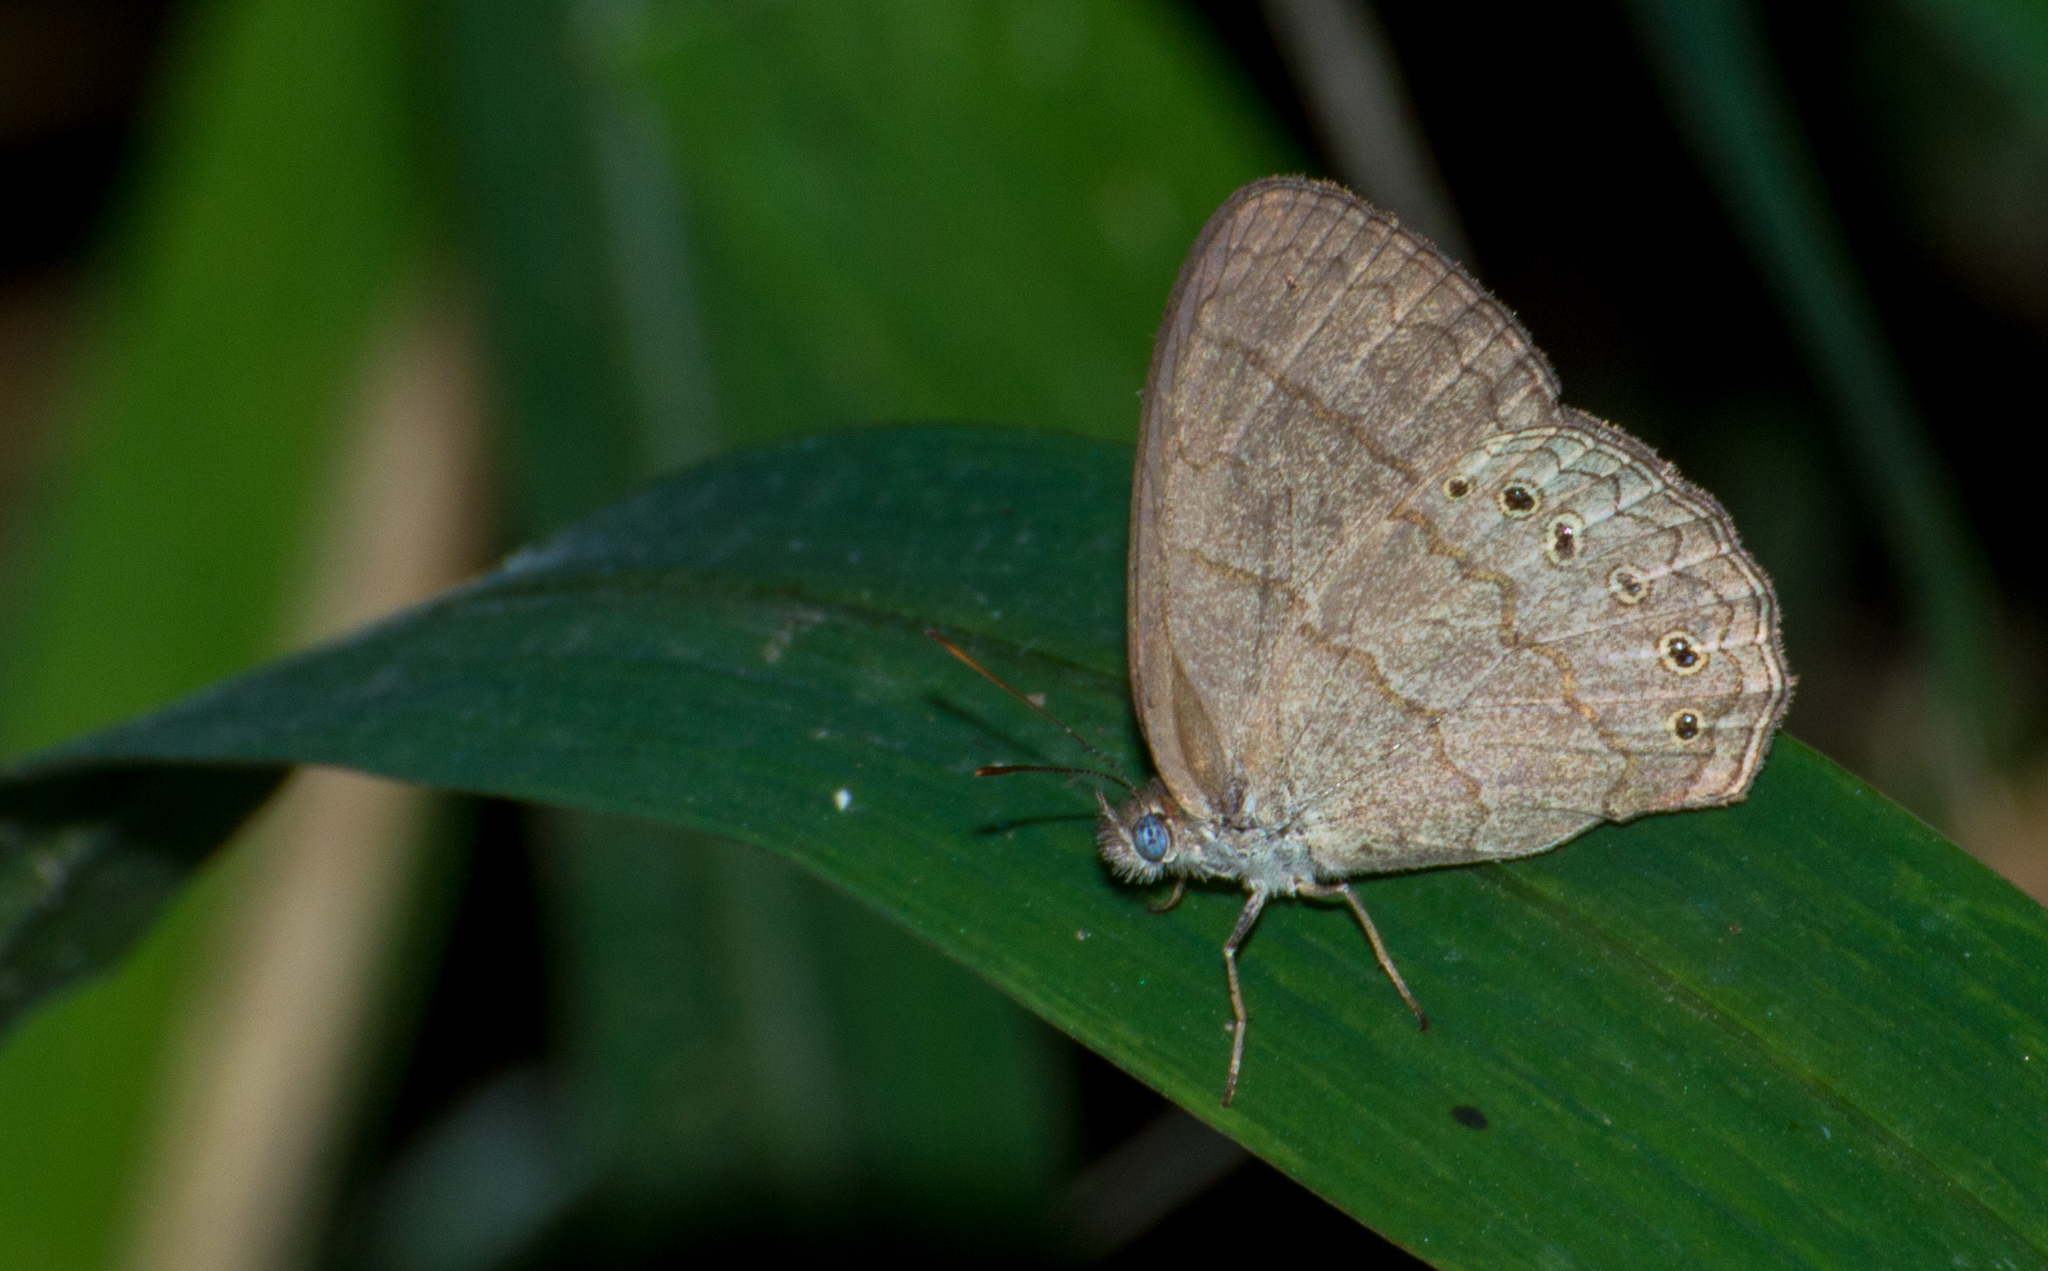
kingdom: Animalia
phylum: Arthropoda
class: Insecta
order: Lepidoptera
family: Nymphalidae
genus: Paryphthimoides
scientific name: Paryphthimoides poltys
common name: Poltys satyr
